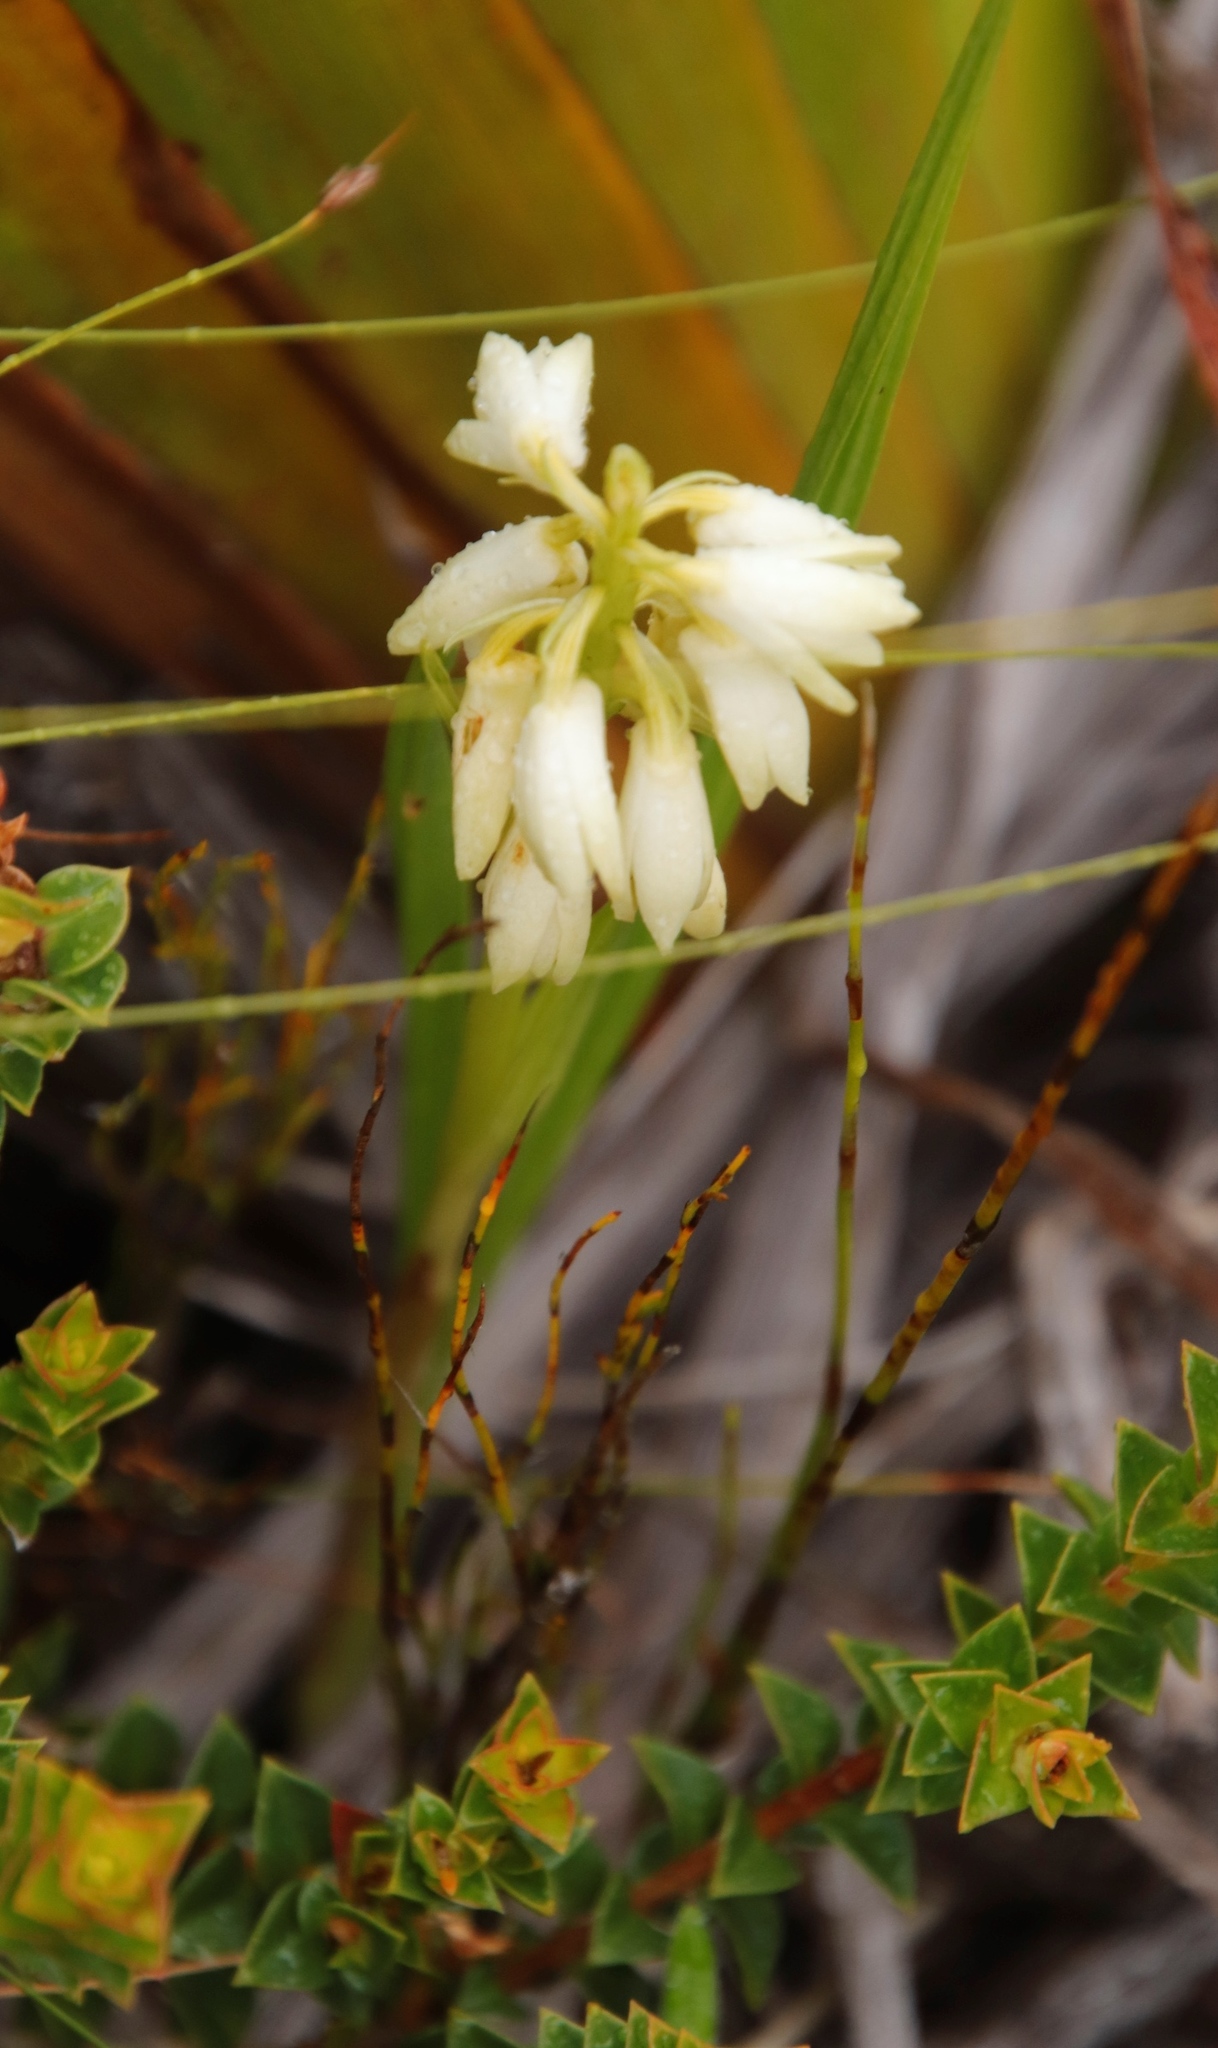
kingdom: Plantae
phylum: Tracheophyta
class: Liliopsida
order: Asparagales
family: Orchidaceae
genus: Eulophia
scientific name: Eulophia aculeata
